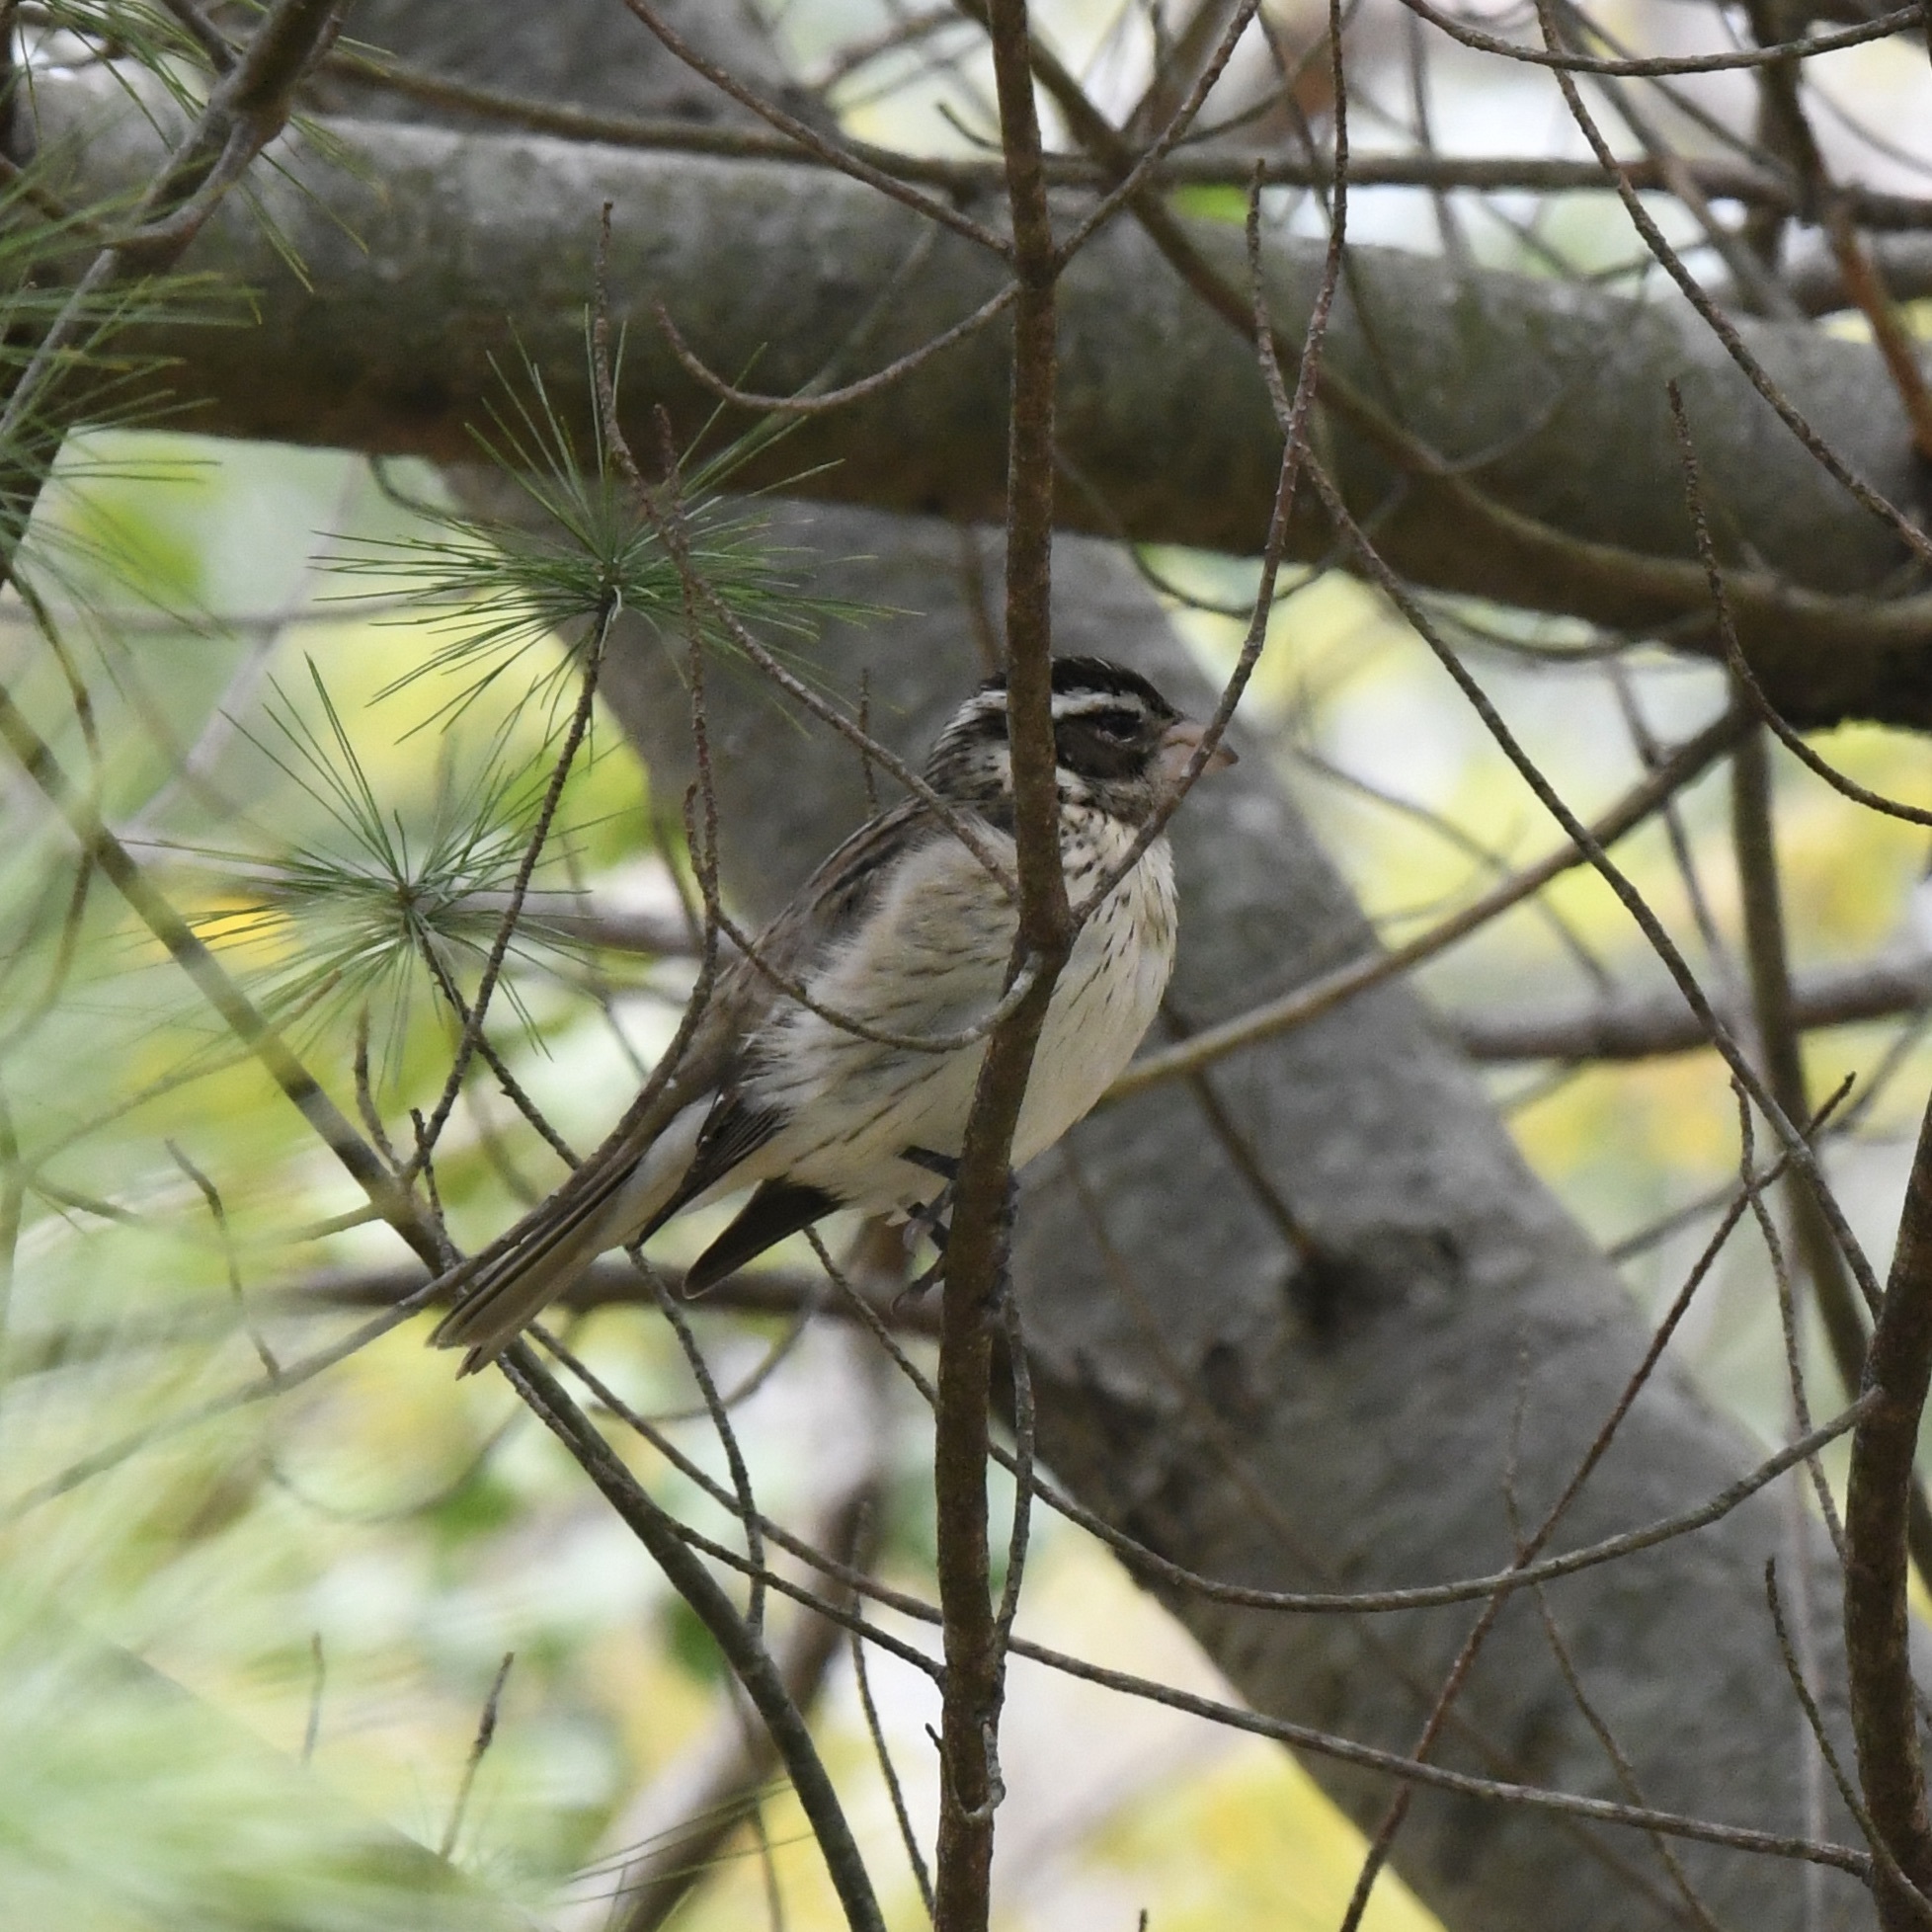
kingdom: Animalia
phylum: Chordata
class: Aves
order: Passeriformes
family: Cardinalidae
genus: Pheucticus
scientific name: Pheucticus ludovicianus
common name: Rose-breasted grosbeak
